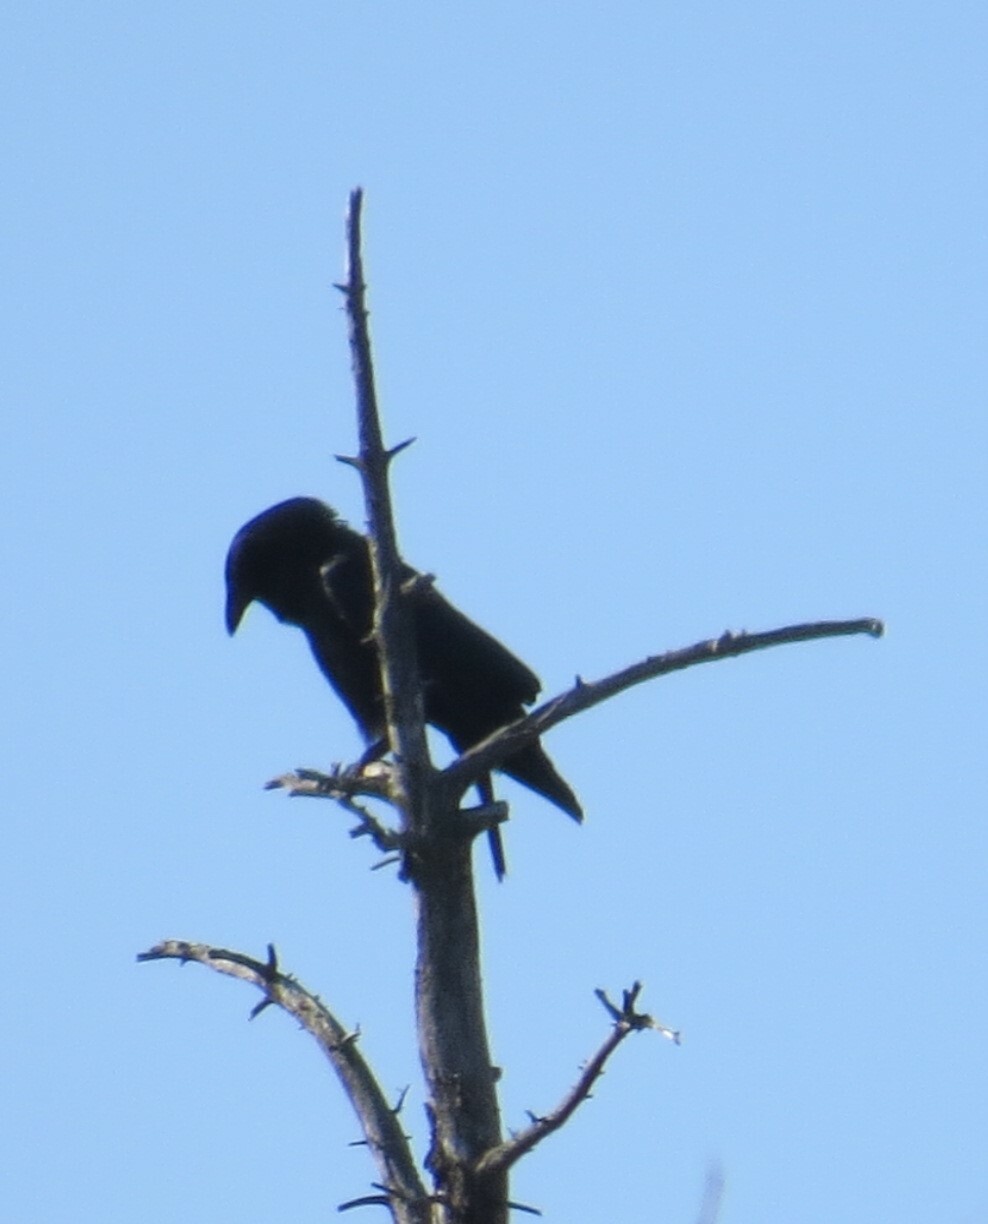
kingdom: Animalia
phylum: Chordata
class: Aves
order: Passeriformes
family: Corvidae
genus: Corvus
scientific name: Corvus brachyrhynchos
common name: American crow
